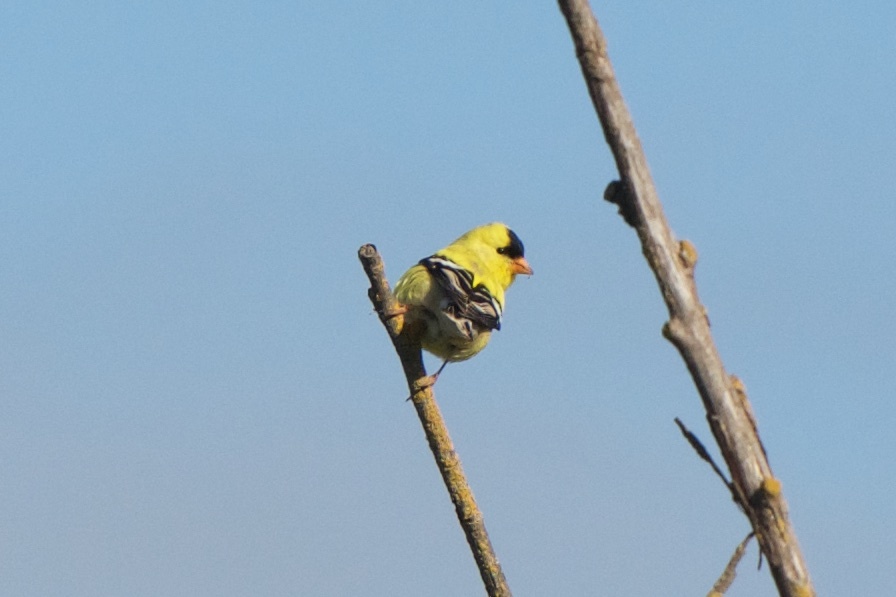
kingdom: Animalia
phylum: Chordata
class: Aves
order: Passeriformes
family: Fringillidae
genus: Spinus
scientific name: Spinus tristis
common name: American goldfinch
